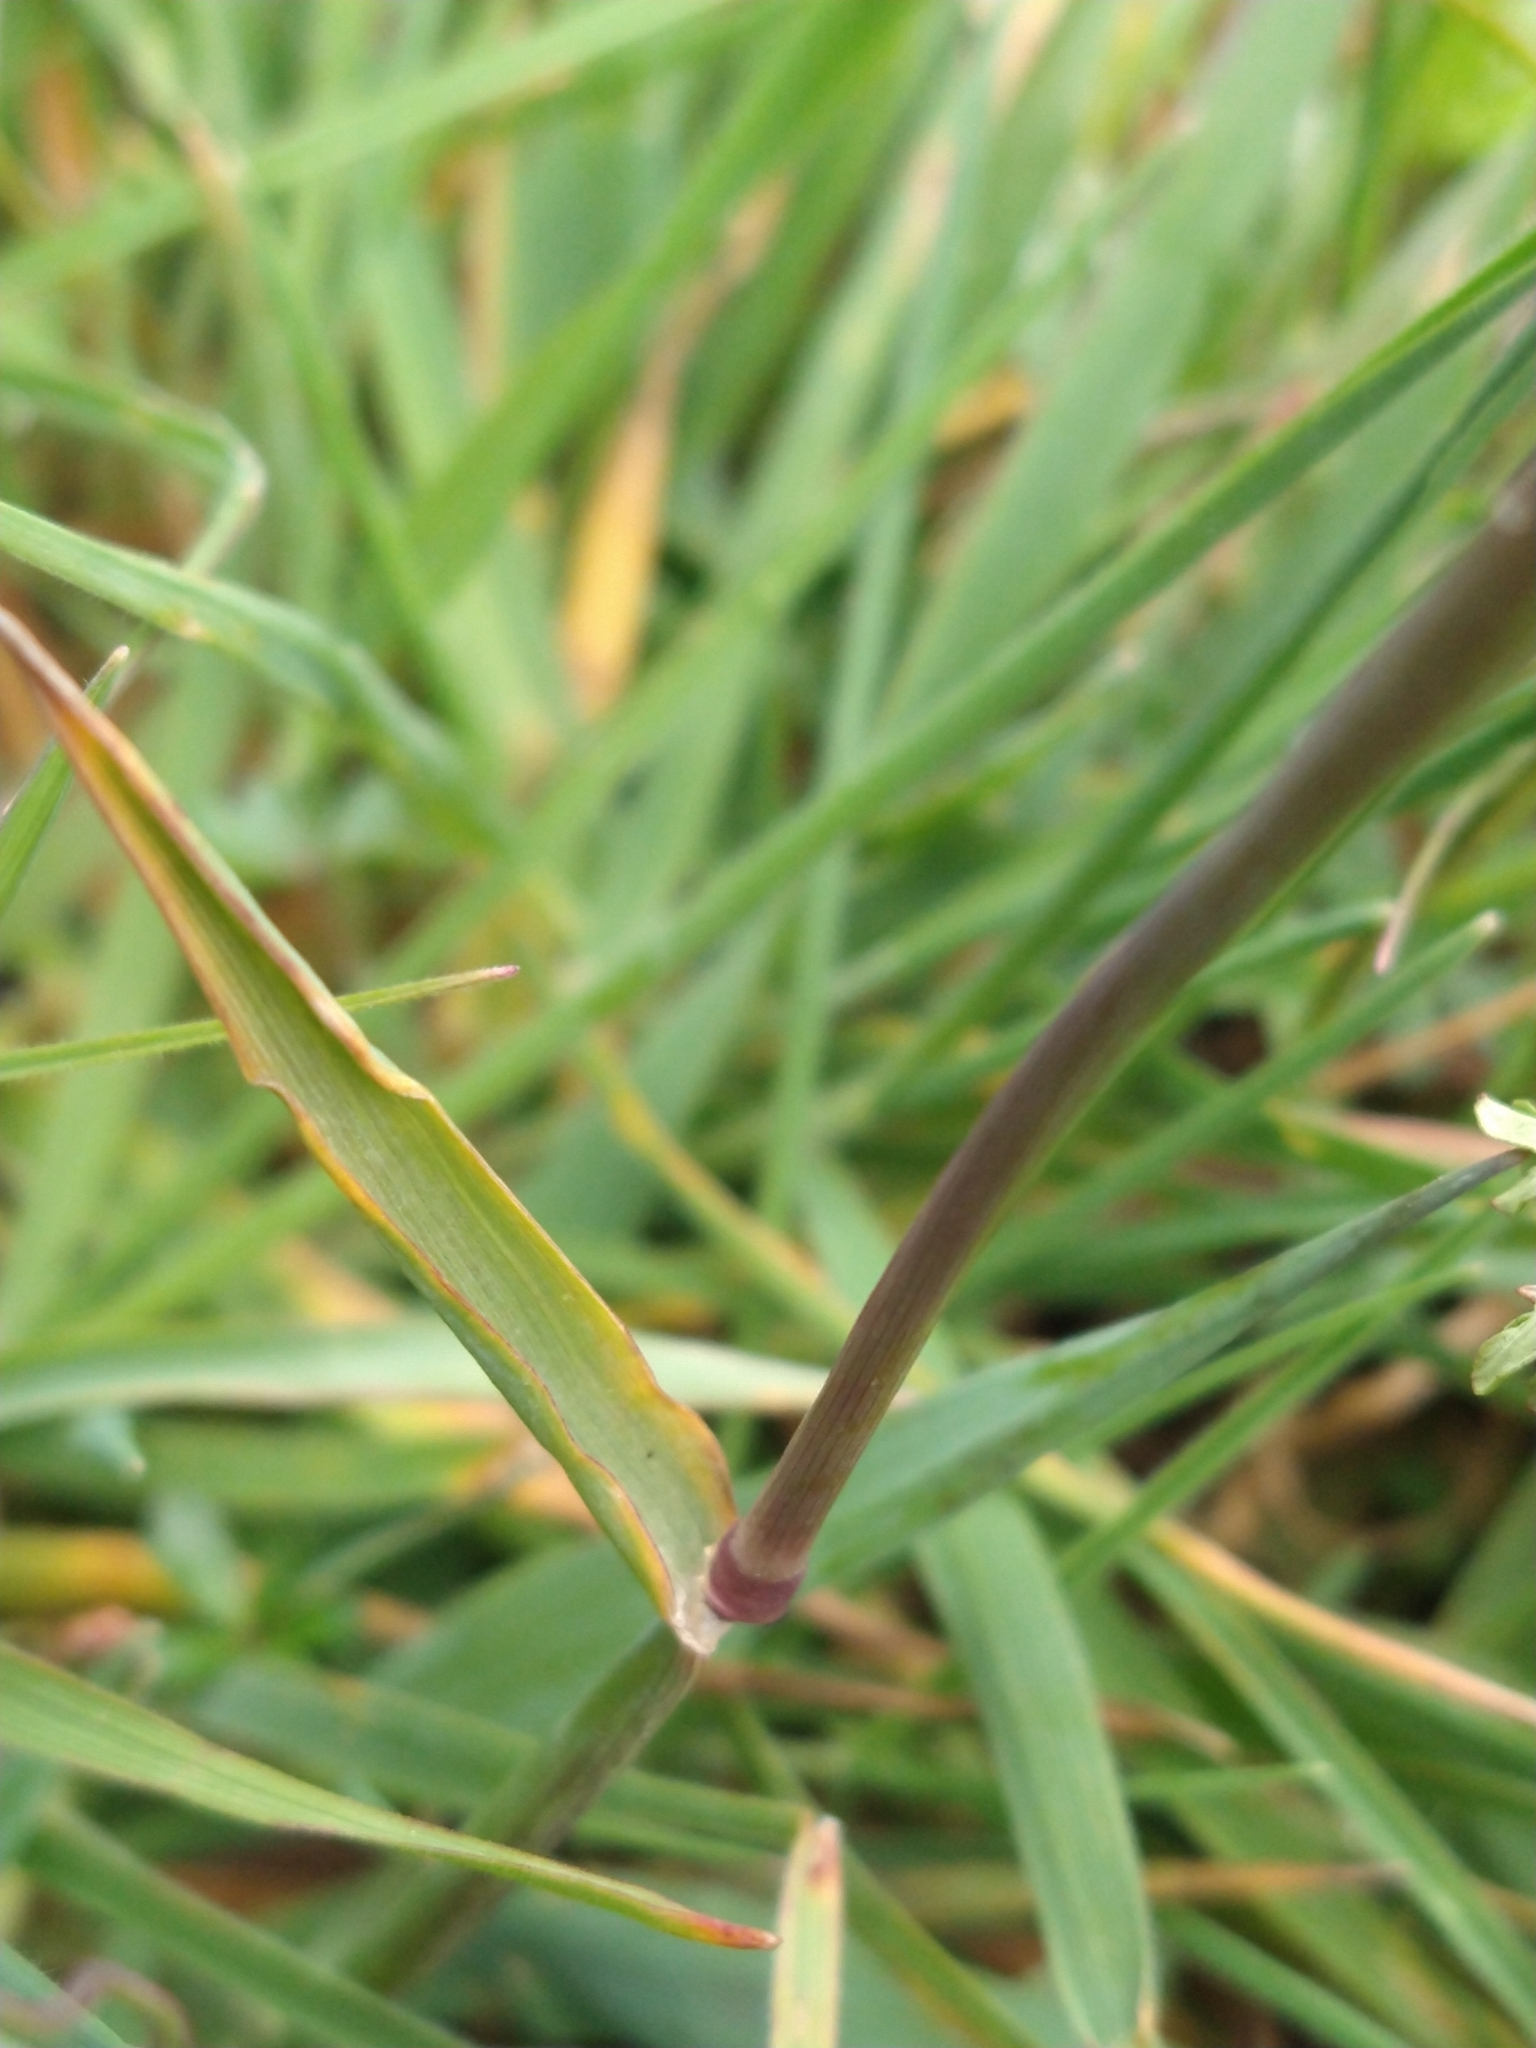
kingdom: Plantae
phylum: Tracheophyta
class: Liliopsida
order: Poales
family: Poaceae
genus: Phleum
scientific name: Phleum alpinum
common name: Alpine cat's-tail
